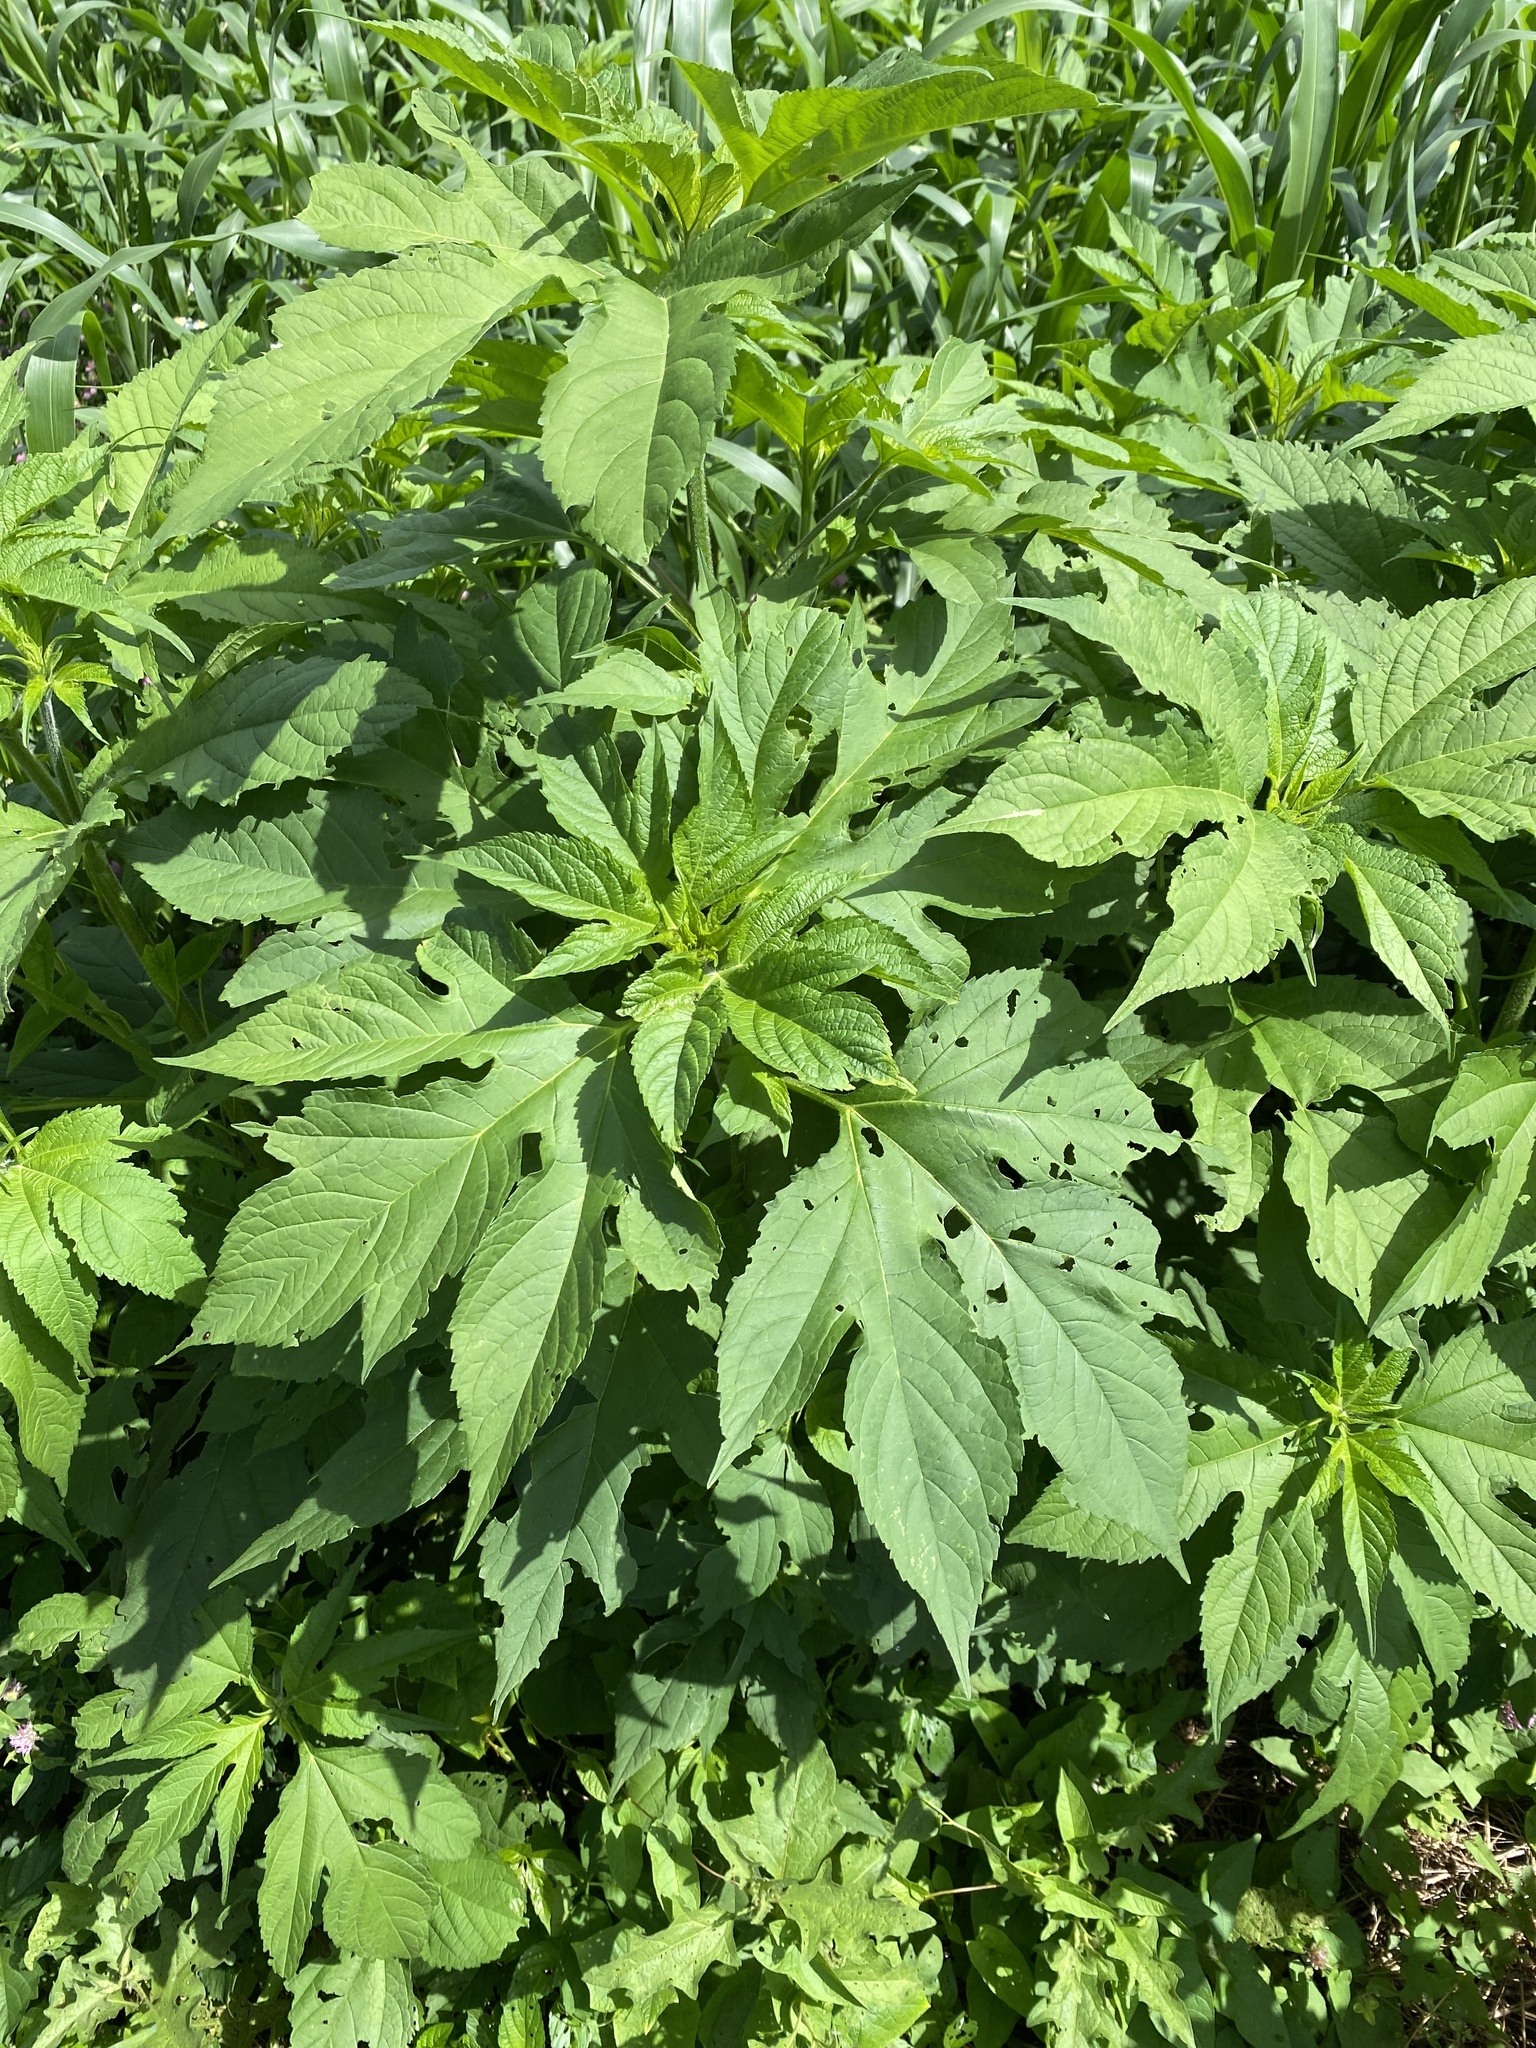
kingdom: Plantae
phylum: Tracheophyta
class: Magnoliopsida
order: Asterales
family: Asteraceae
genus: Ambrosia
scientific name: Ambrosia trifida
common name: Giant ragweed
